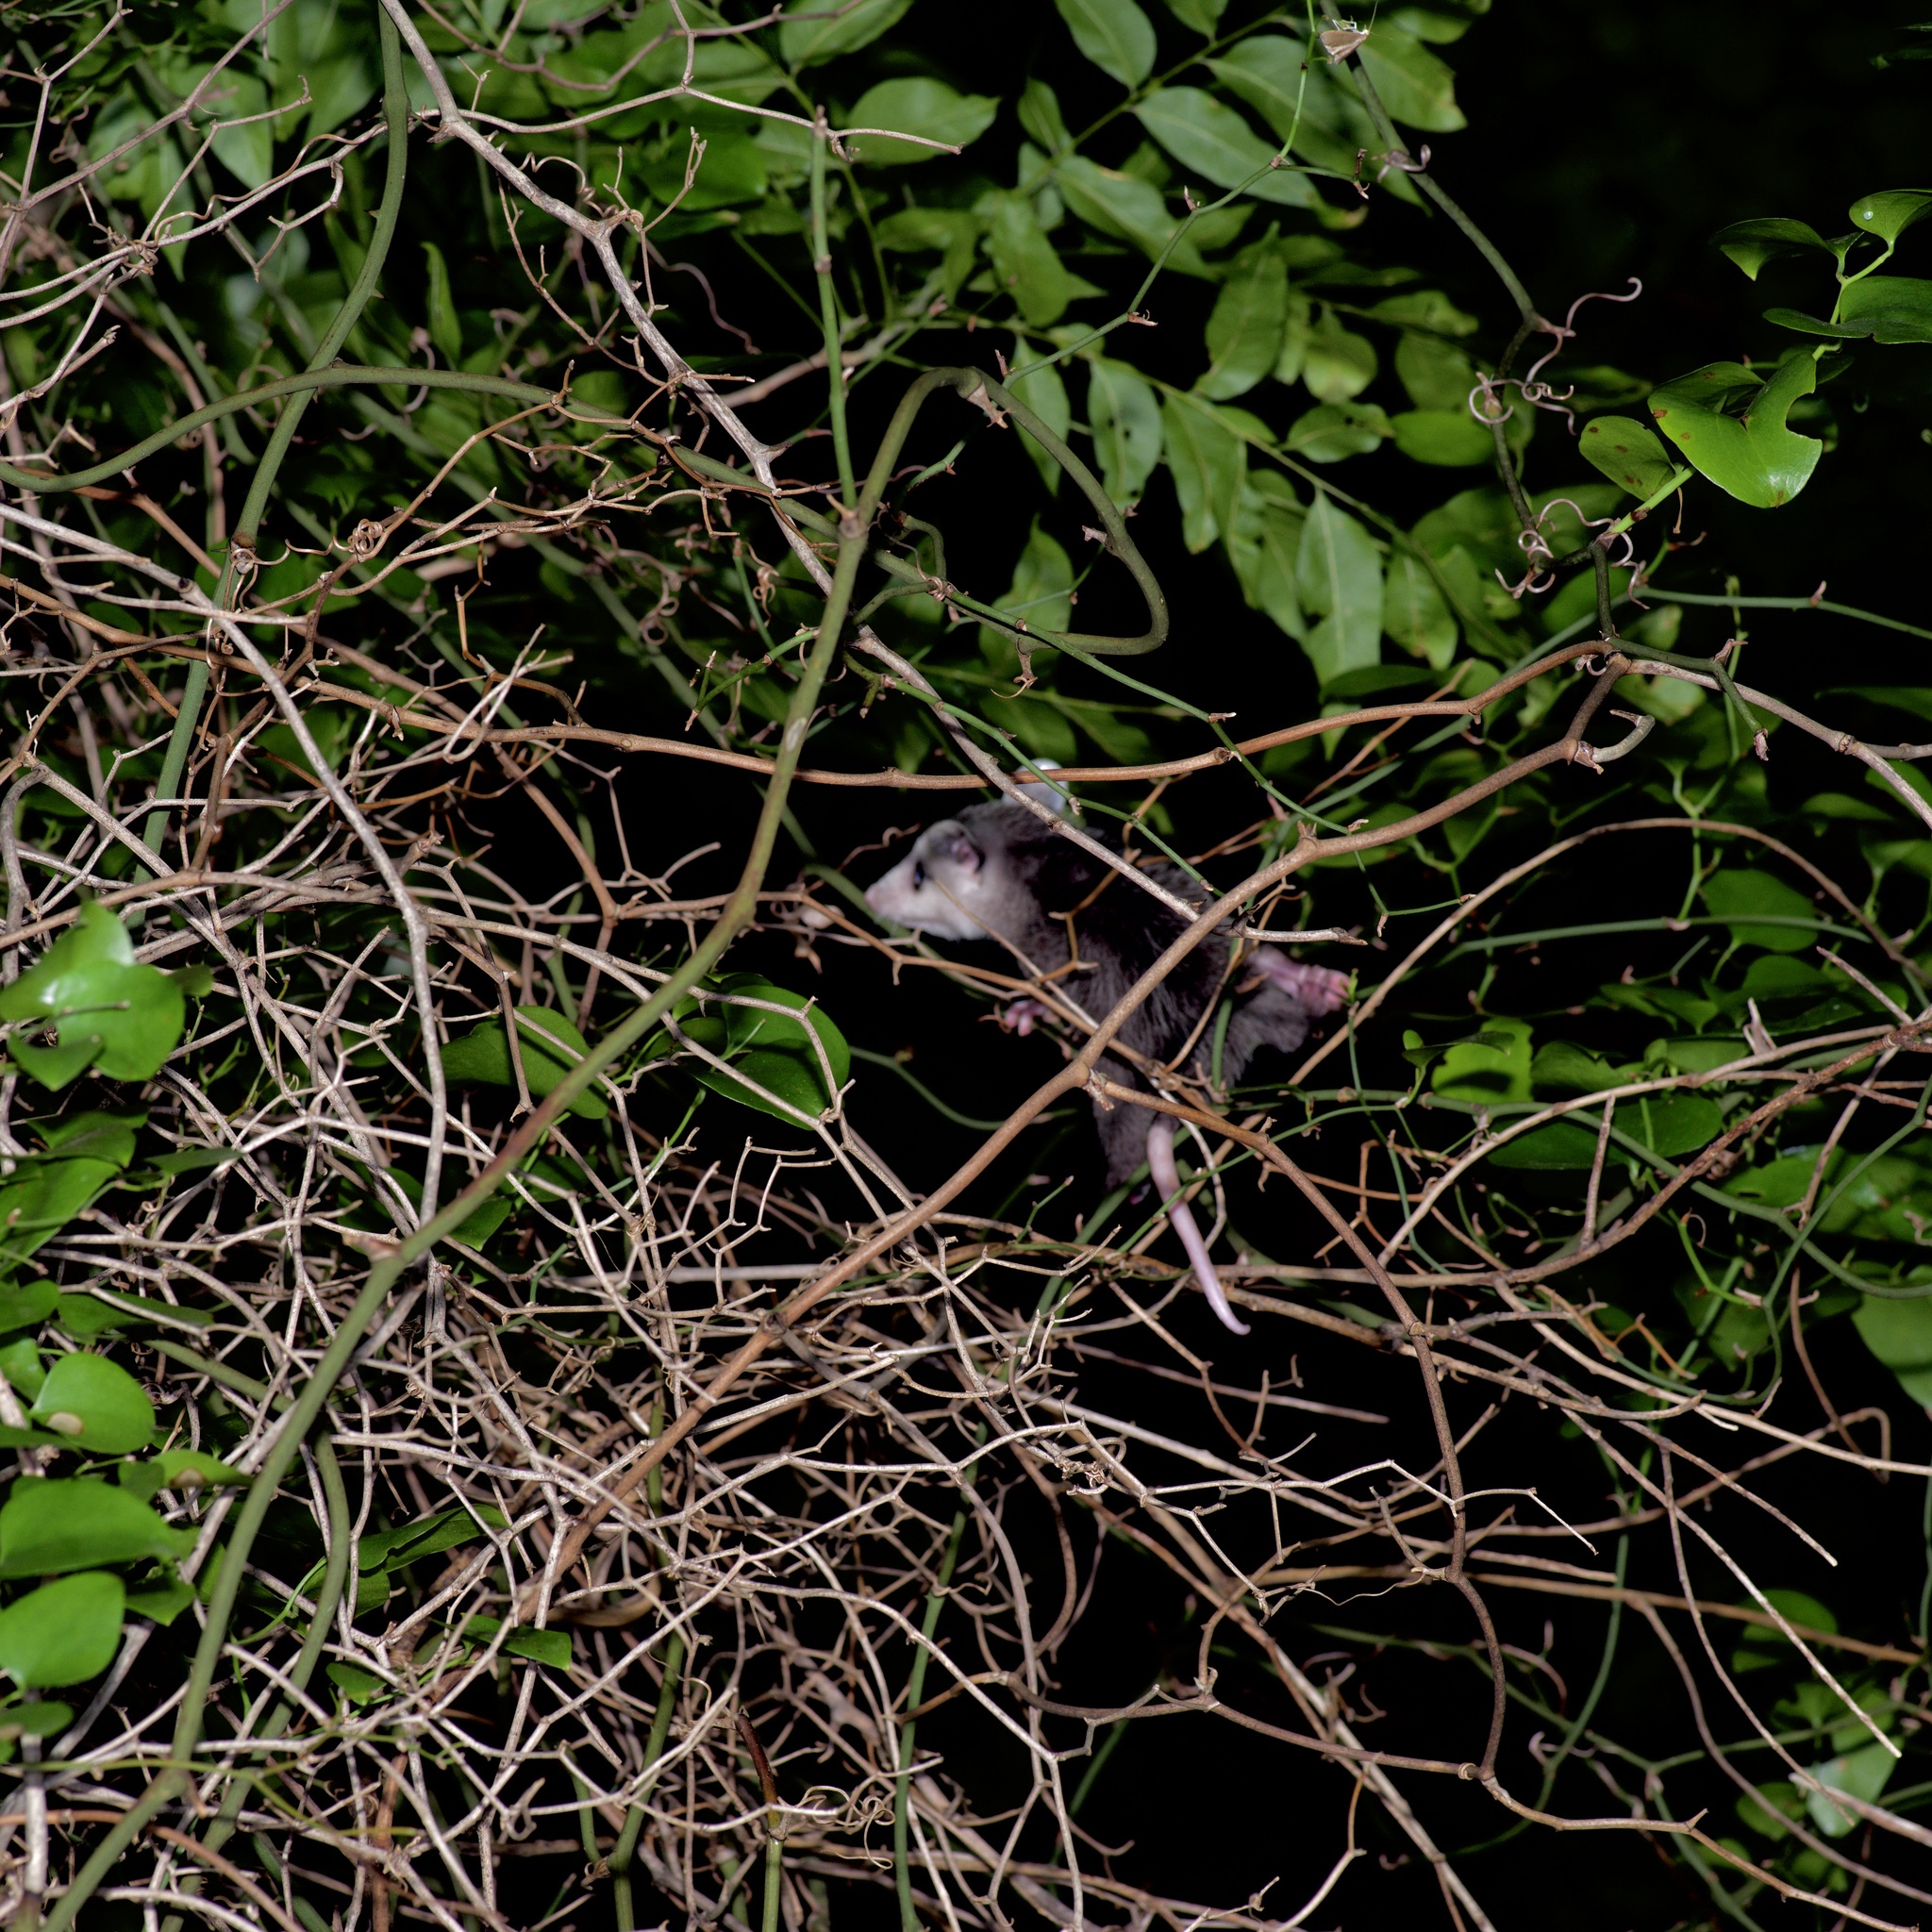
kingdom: Animalia
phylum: Chordata
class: Mammalia
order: Didelphimorphia
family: Didelphidae
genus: Didelphis
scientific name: Didelphis virginiana
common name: Virginia opossum
